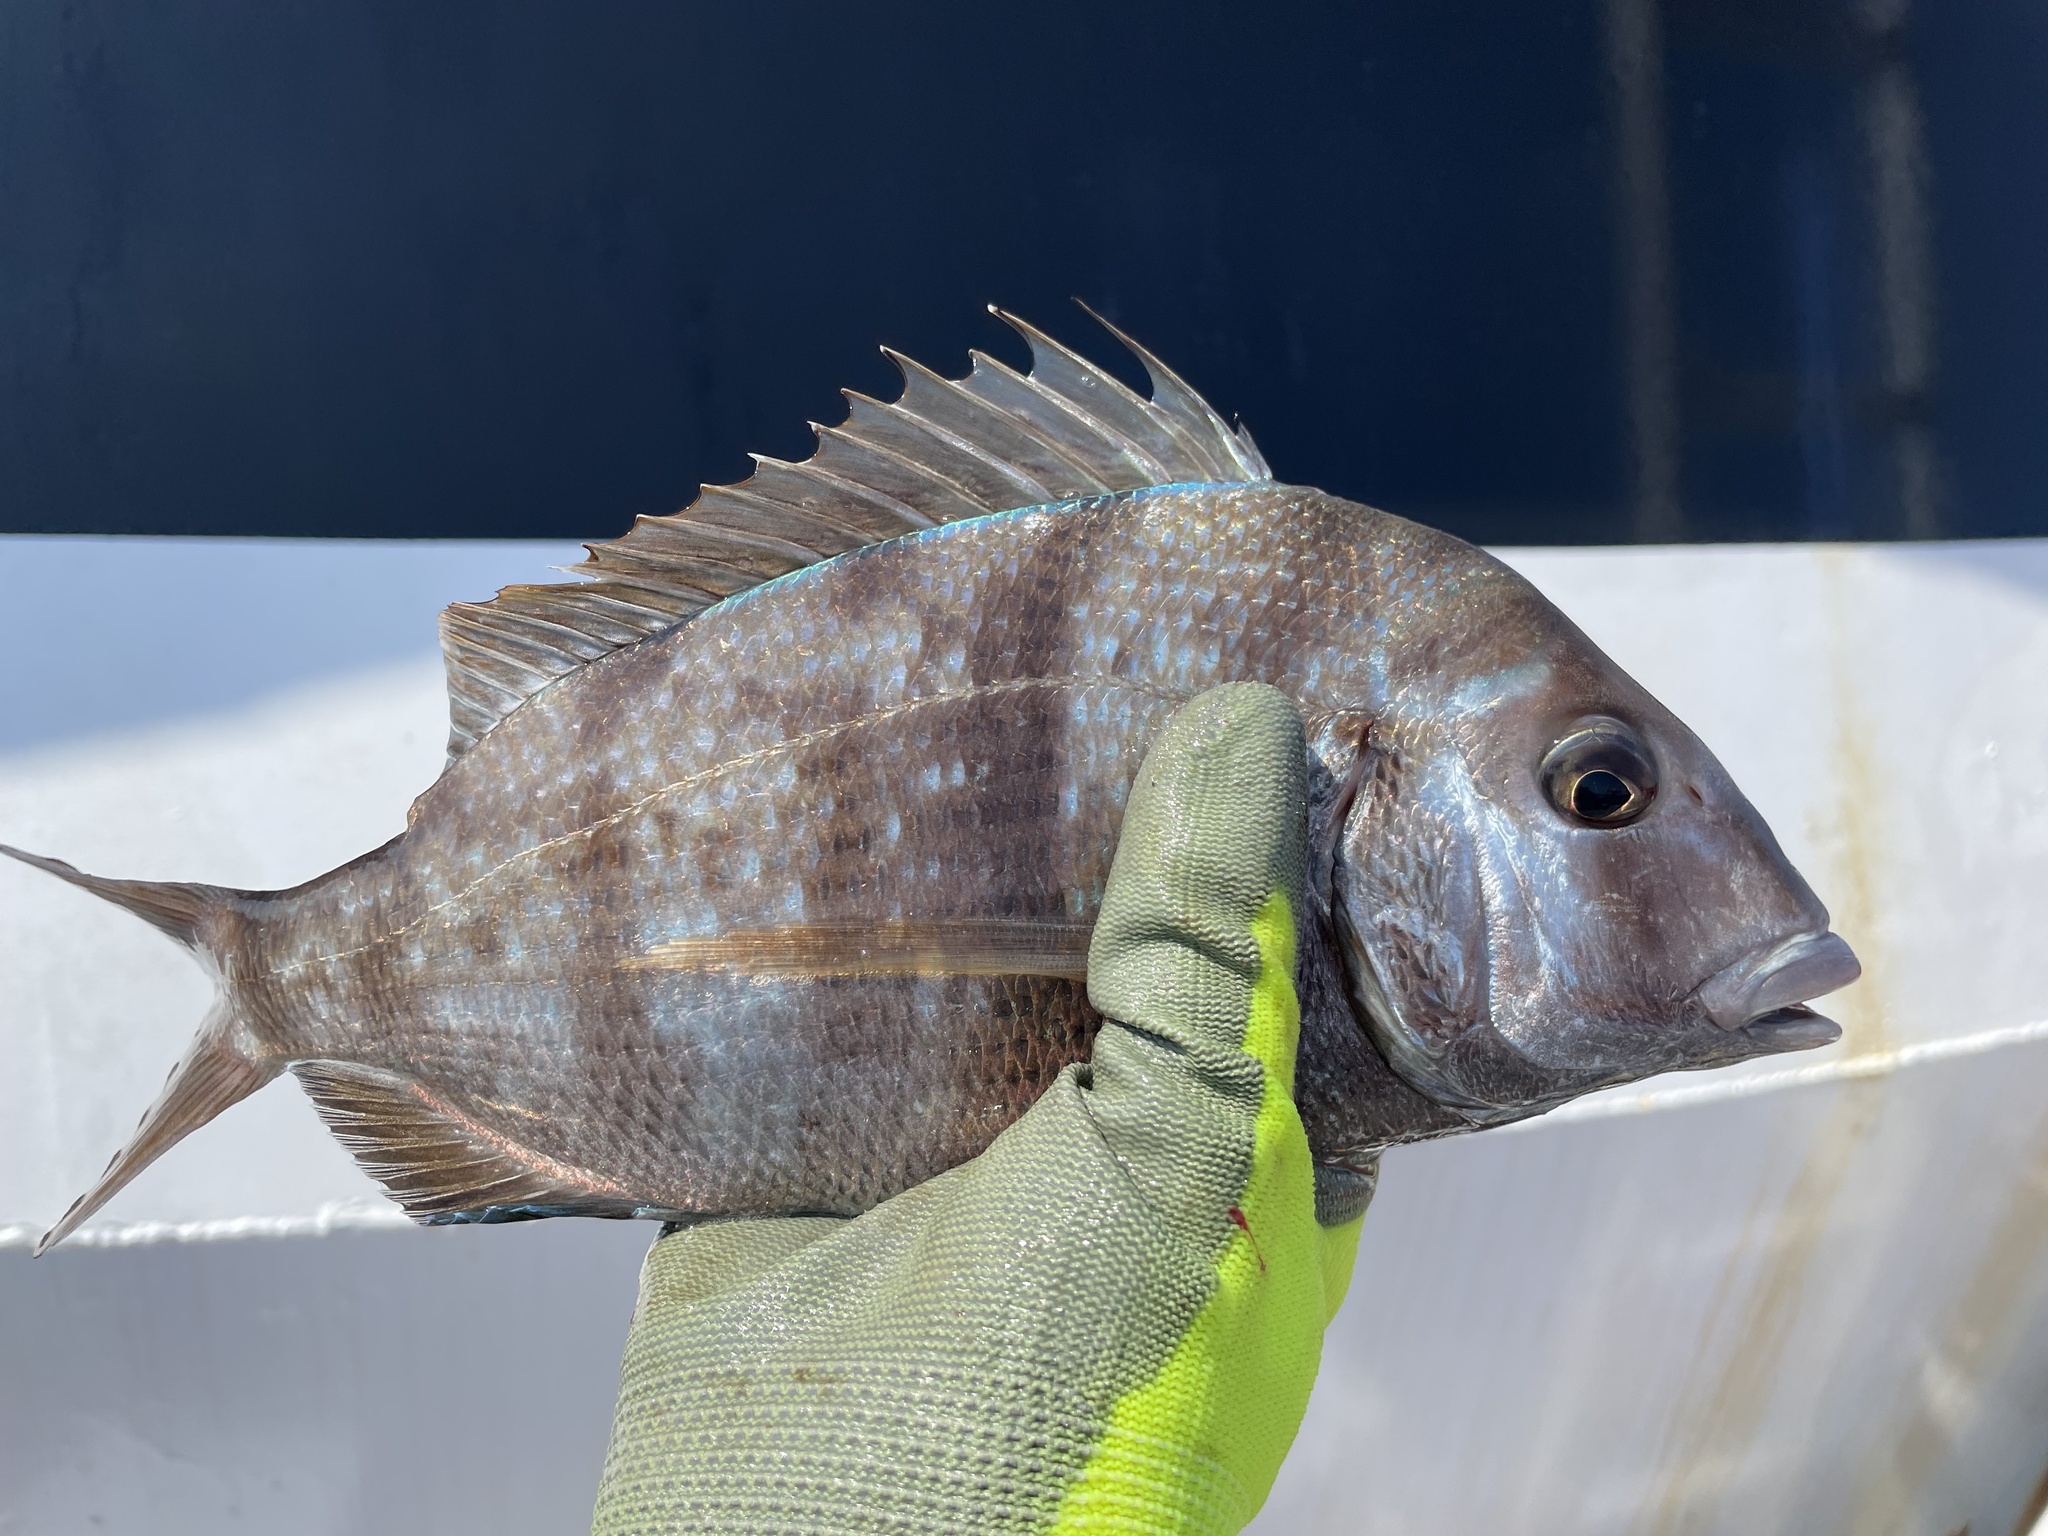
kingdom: Animalia
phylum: Chordata
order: Perciformes
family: Sparidae
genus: Stenotomus
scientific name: Stenotomus chrysops
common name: Scup
